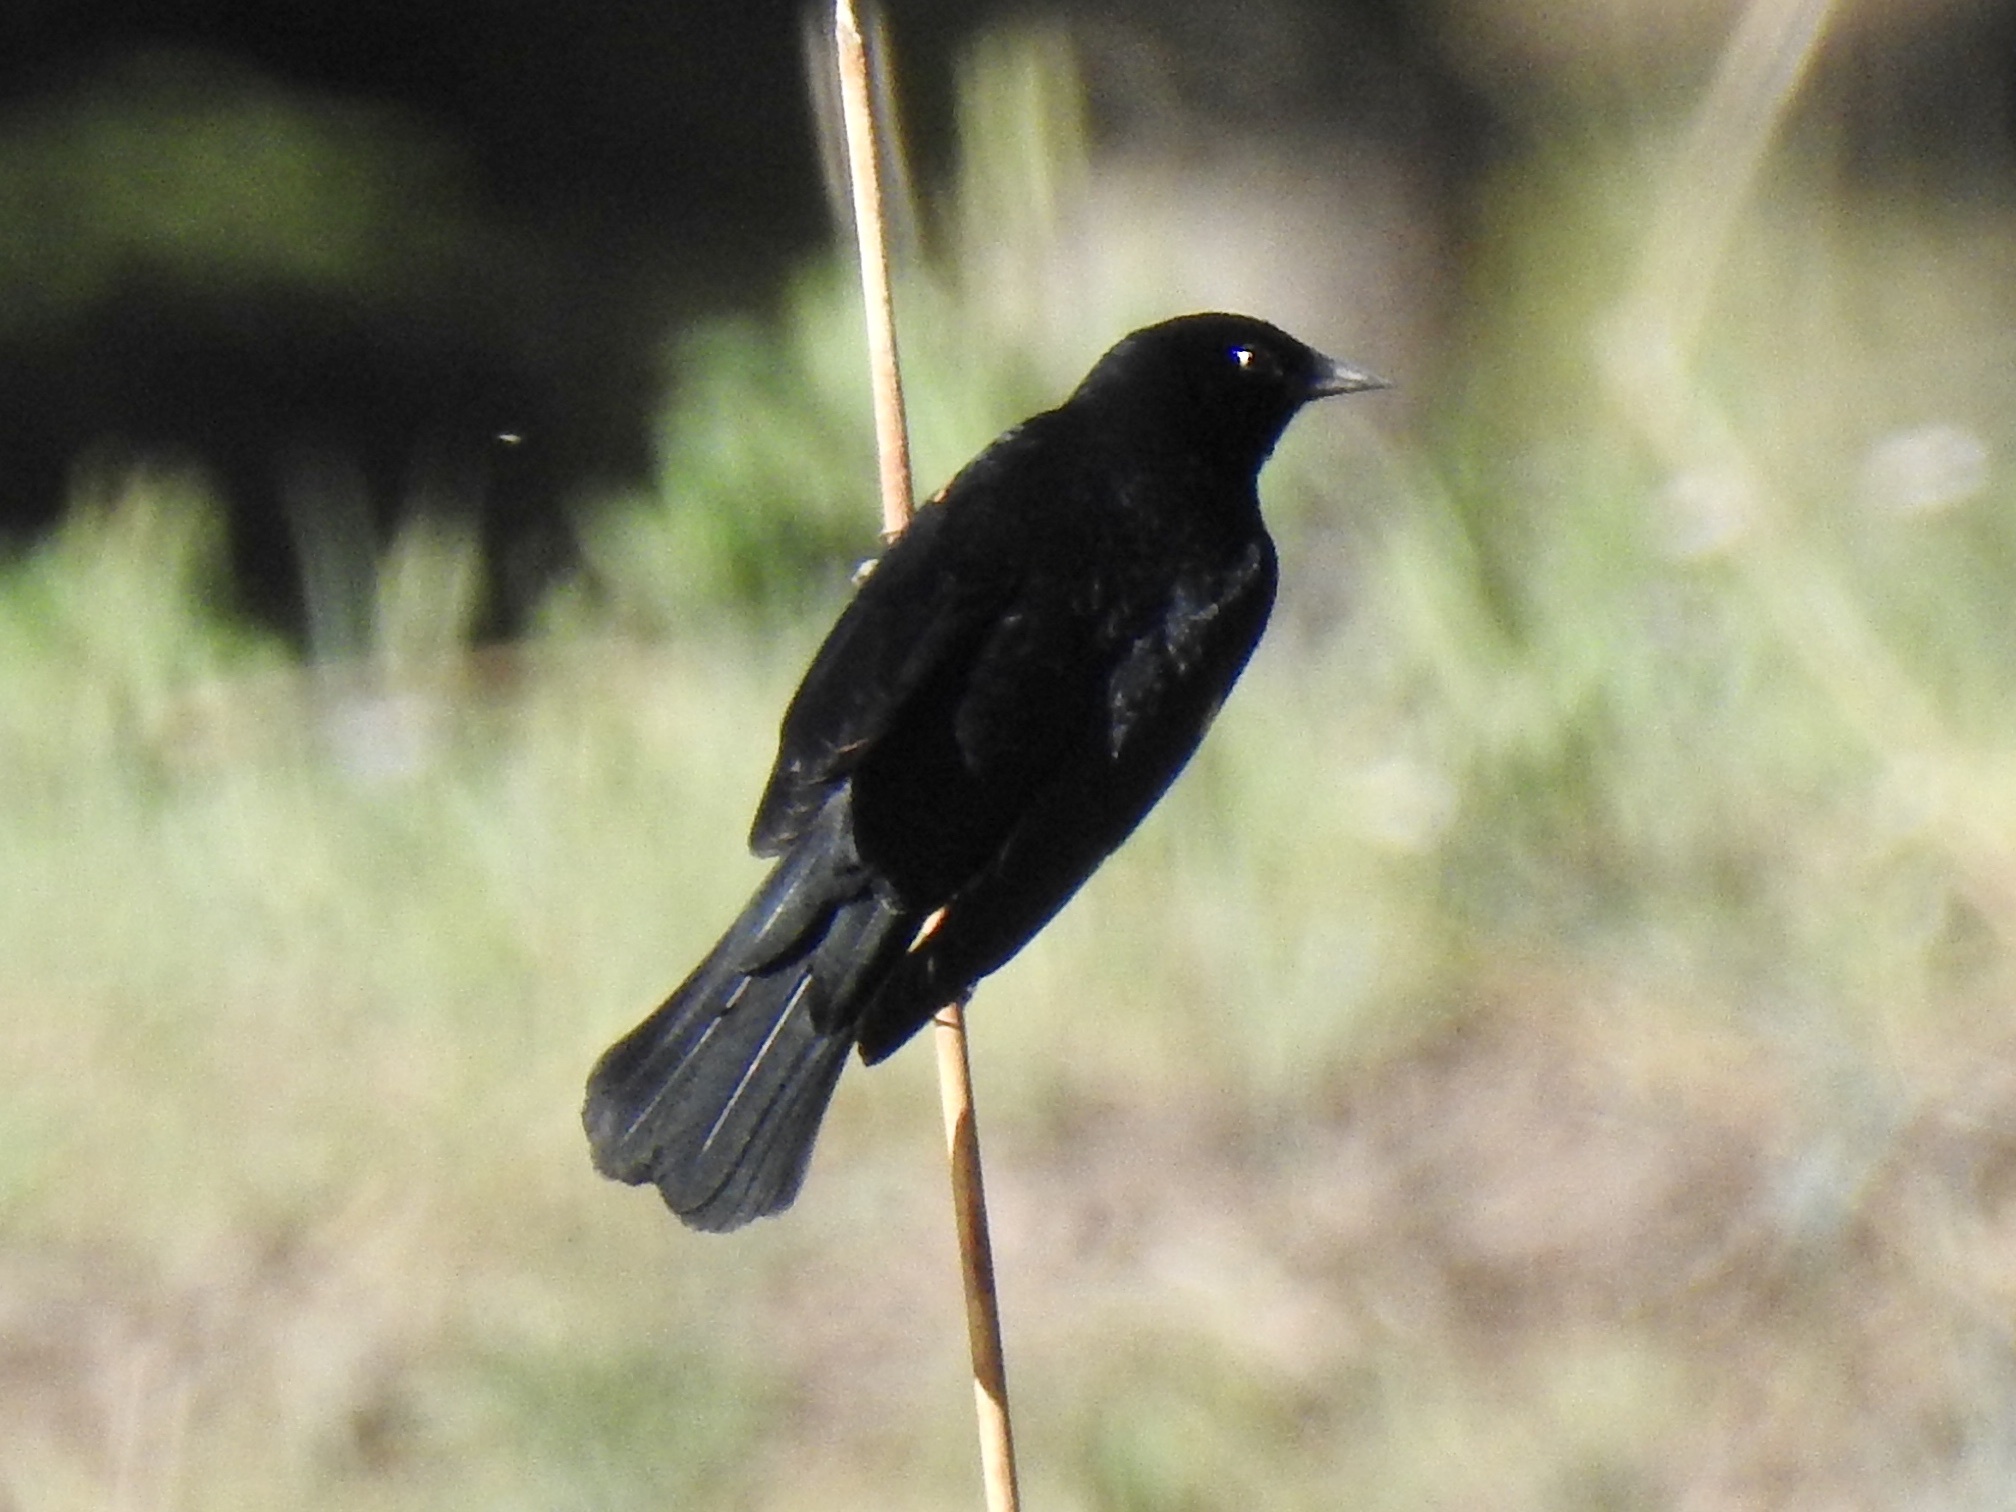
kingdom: Animalia
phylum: Chordata
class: Aves
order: Passeriformes
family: Icteridae
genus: Euphagus
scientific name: Euphagus cyanocephalus
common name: Brewer's blackbird
